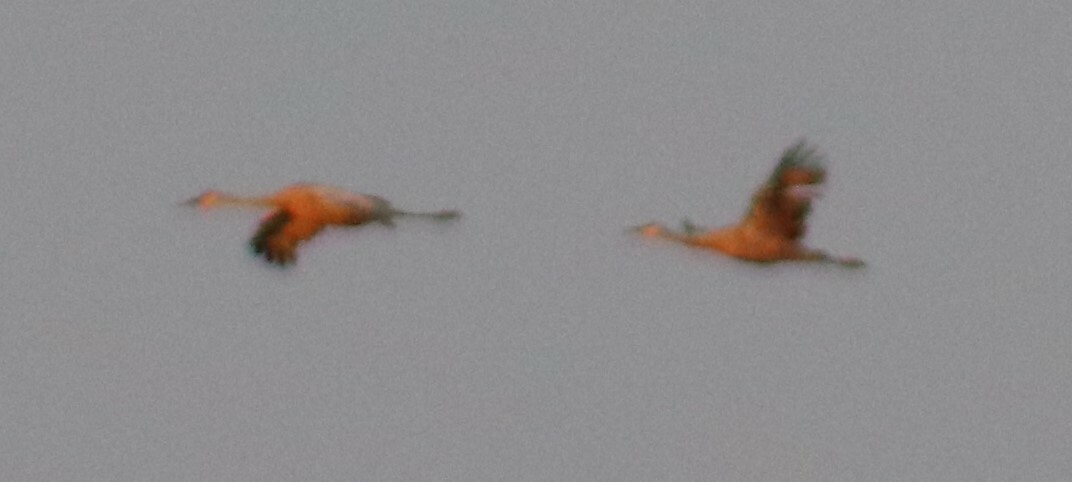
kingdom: Animalia
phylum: Chordata
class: Aves
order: Gruiformes
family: Gruidae
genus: Grus
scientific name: Grus canadensis
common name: Sandhill crane
